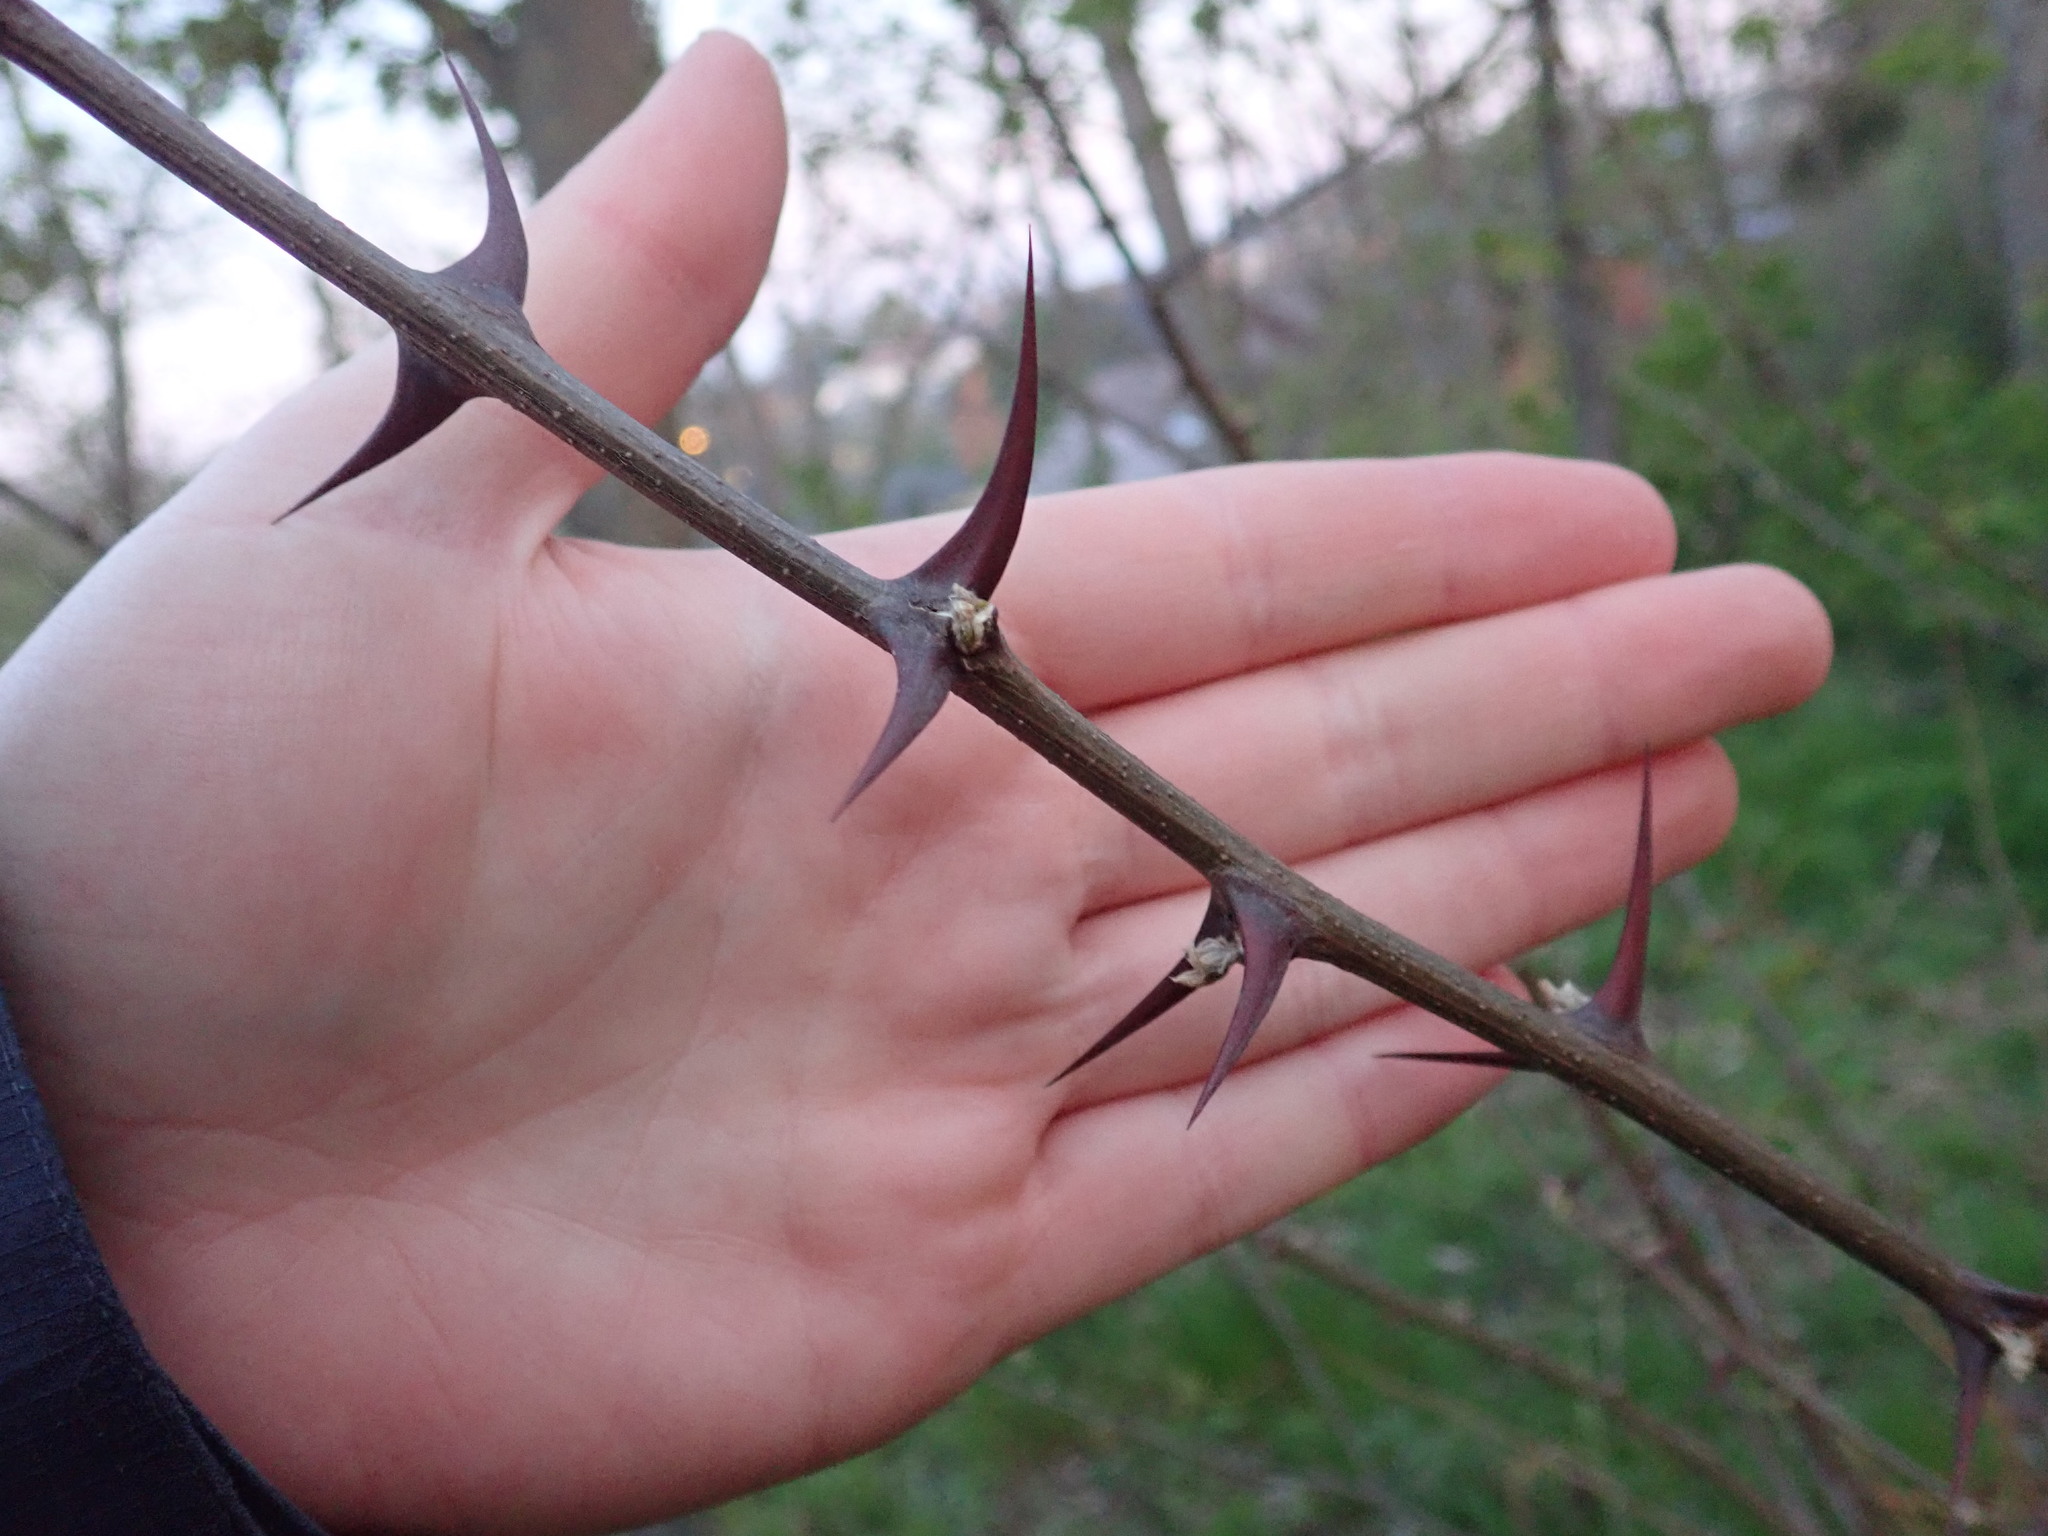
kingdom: Plantae
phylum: Tracheophyta
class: Magnoliopsida
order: Fabales
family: Fabaceae
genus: Robinia
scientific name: Robinia pseudoacacia
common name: Black locust
